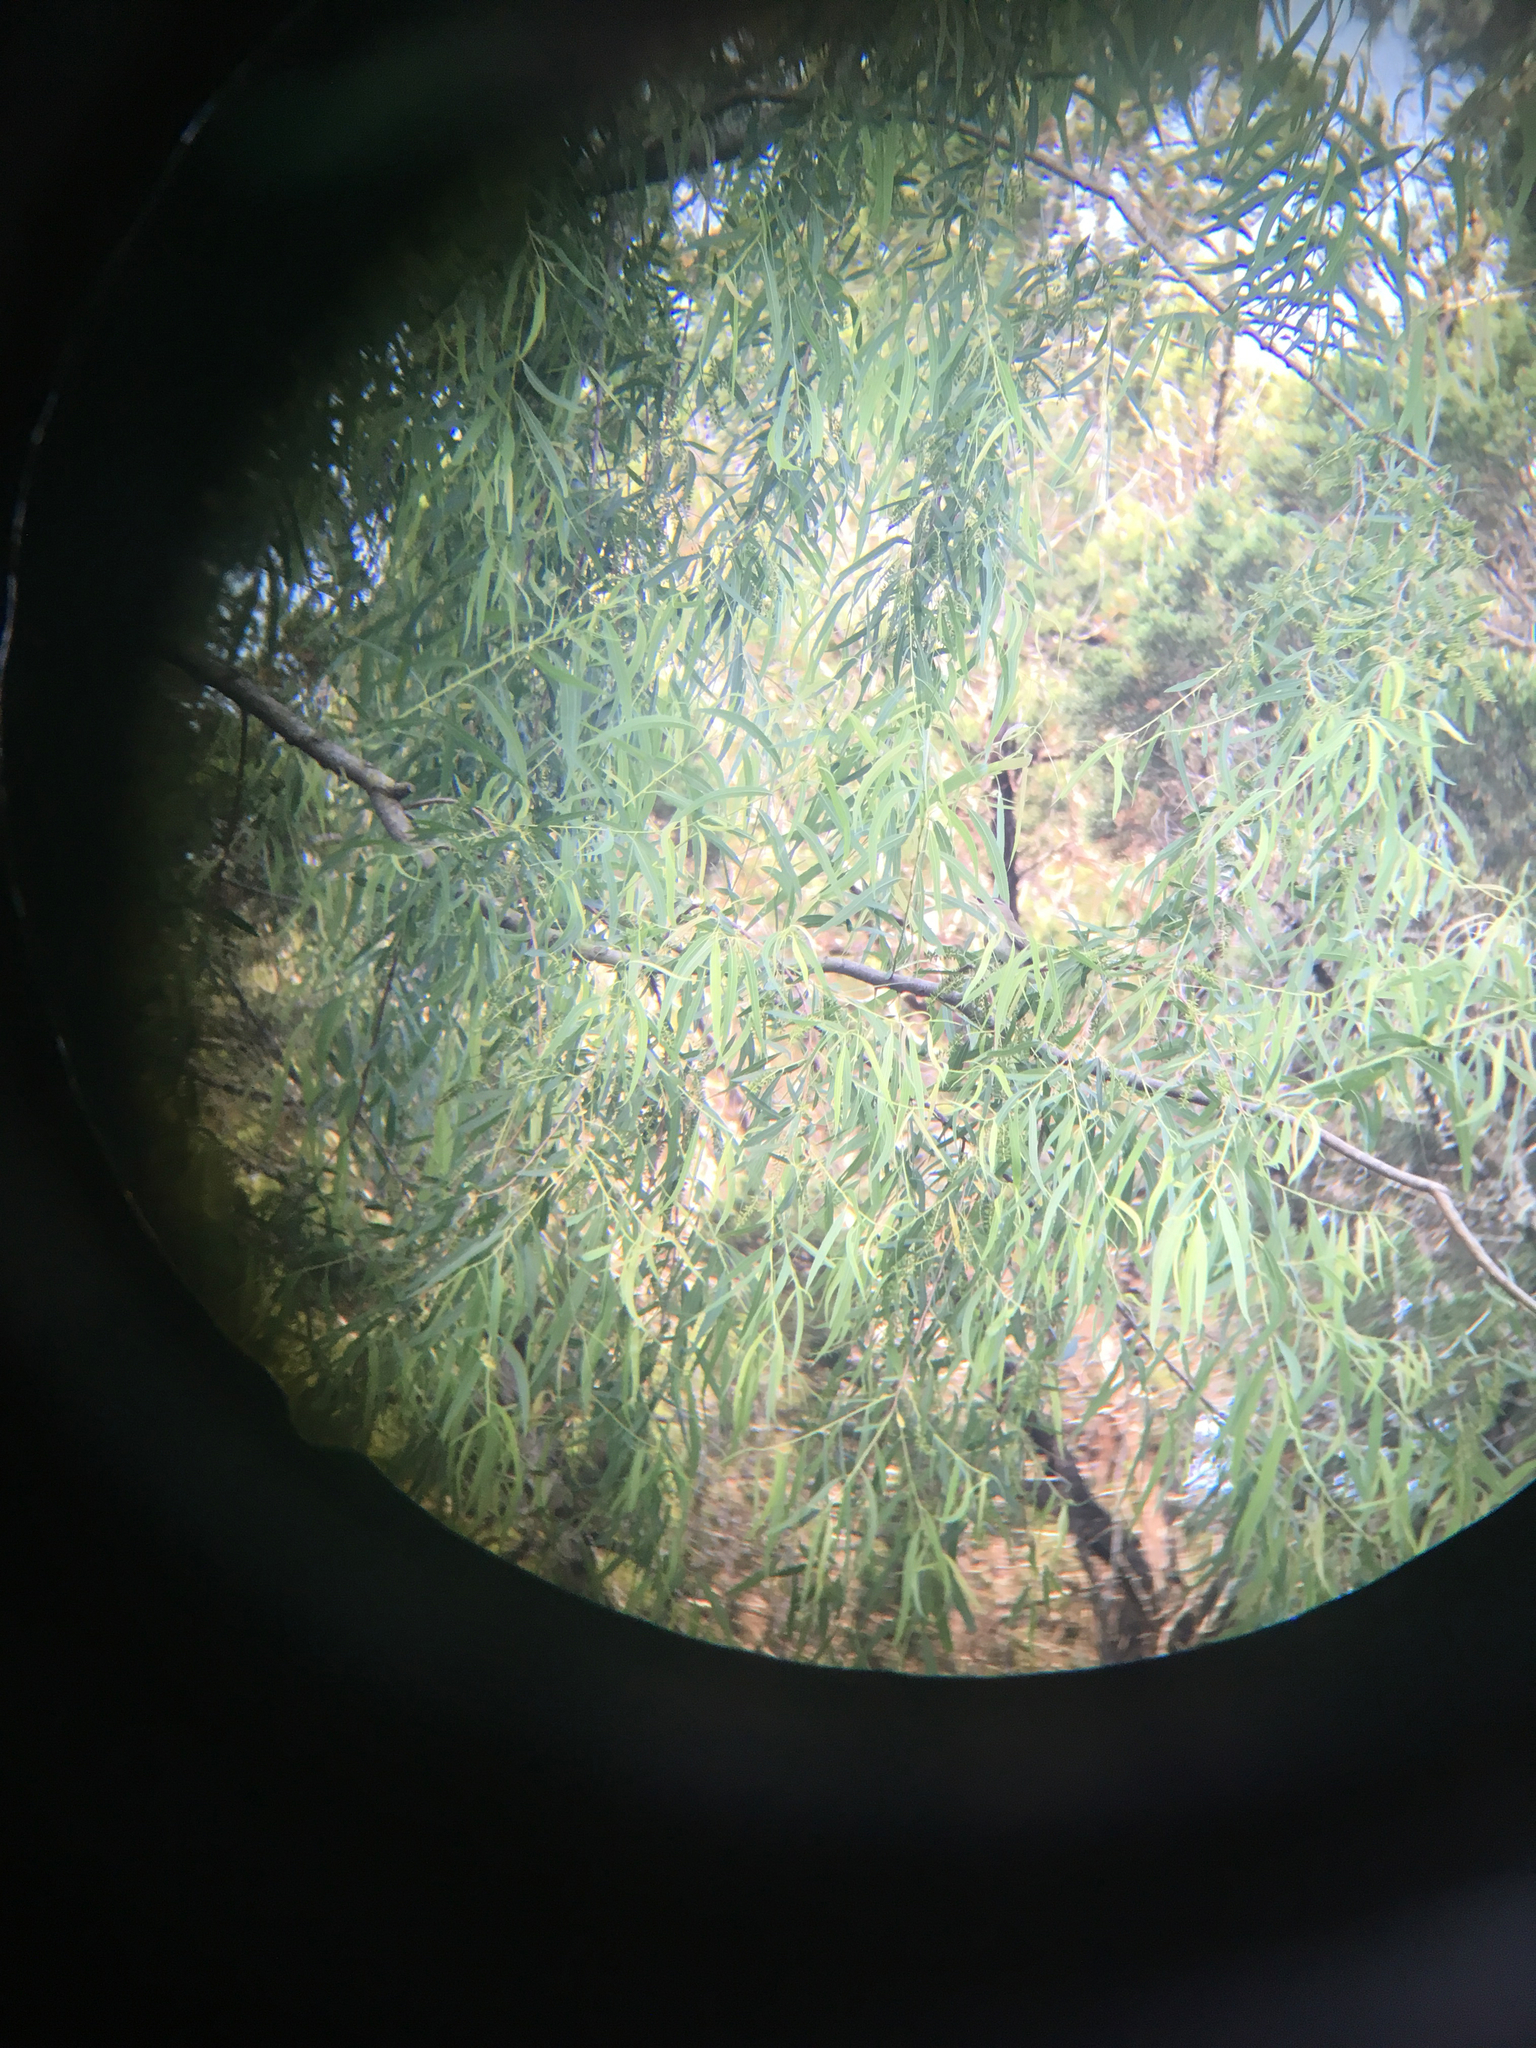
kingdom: Animalia
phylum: Chordata
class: Aves
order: Passeriformes
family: Vireonidae
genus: Vireo
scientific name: Vireo olivaceus
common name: Red-eyed vireo
